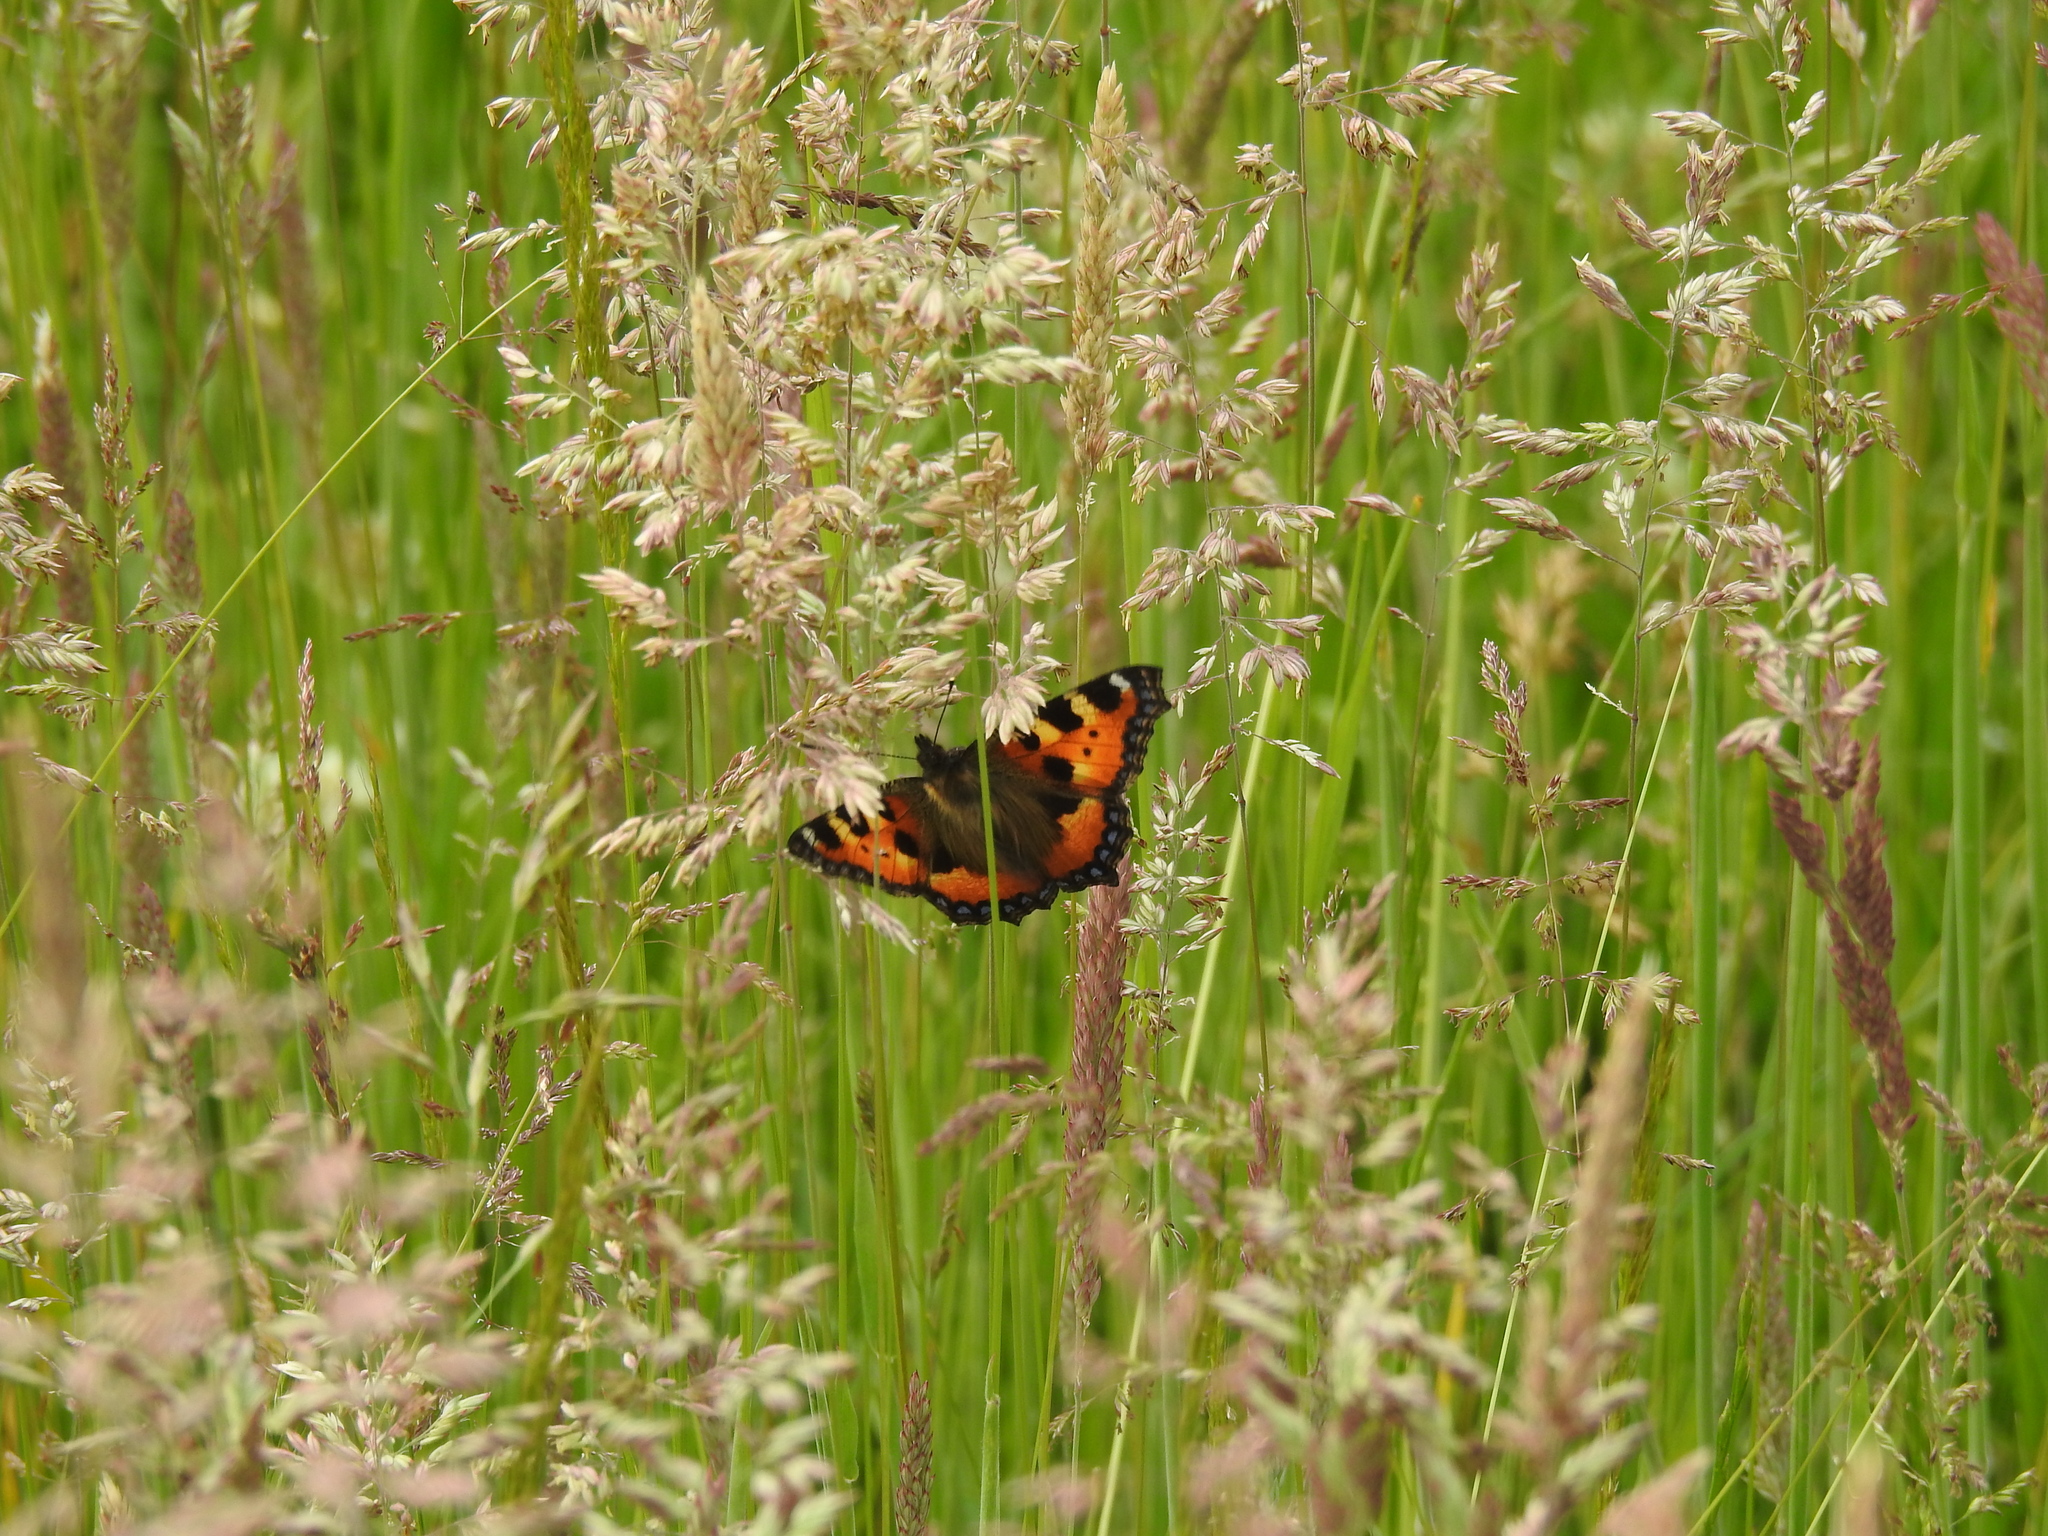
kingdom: Animalia
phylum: Arthropoda
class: Insecta
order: Lepidoptera
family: Nymphalidae
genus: Aglais
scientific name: Aglais urticae
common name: Small tortoiseshell
